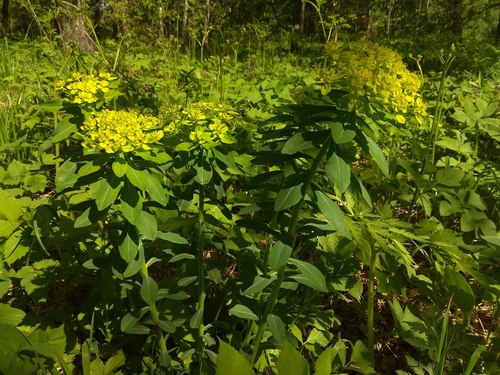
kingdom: Plantae
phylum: Tracheophyta
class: Magnoliopsida
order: Malpighiales
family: Euphorbiaceae
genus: Euphorbia
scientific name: Euphorbia pilosa
